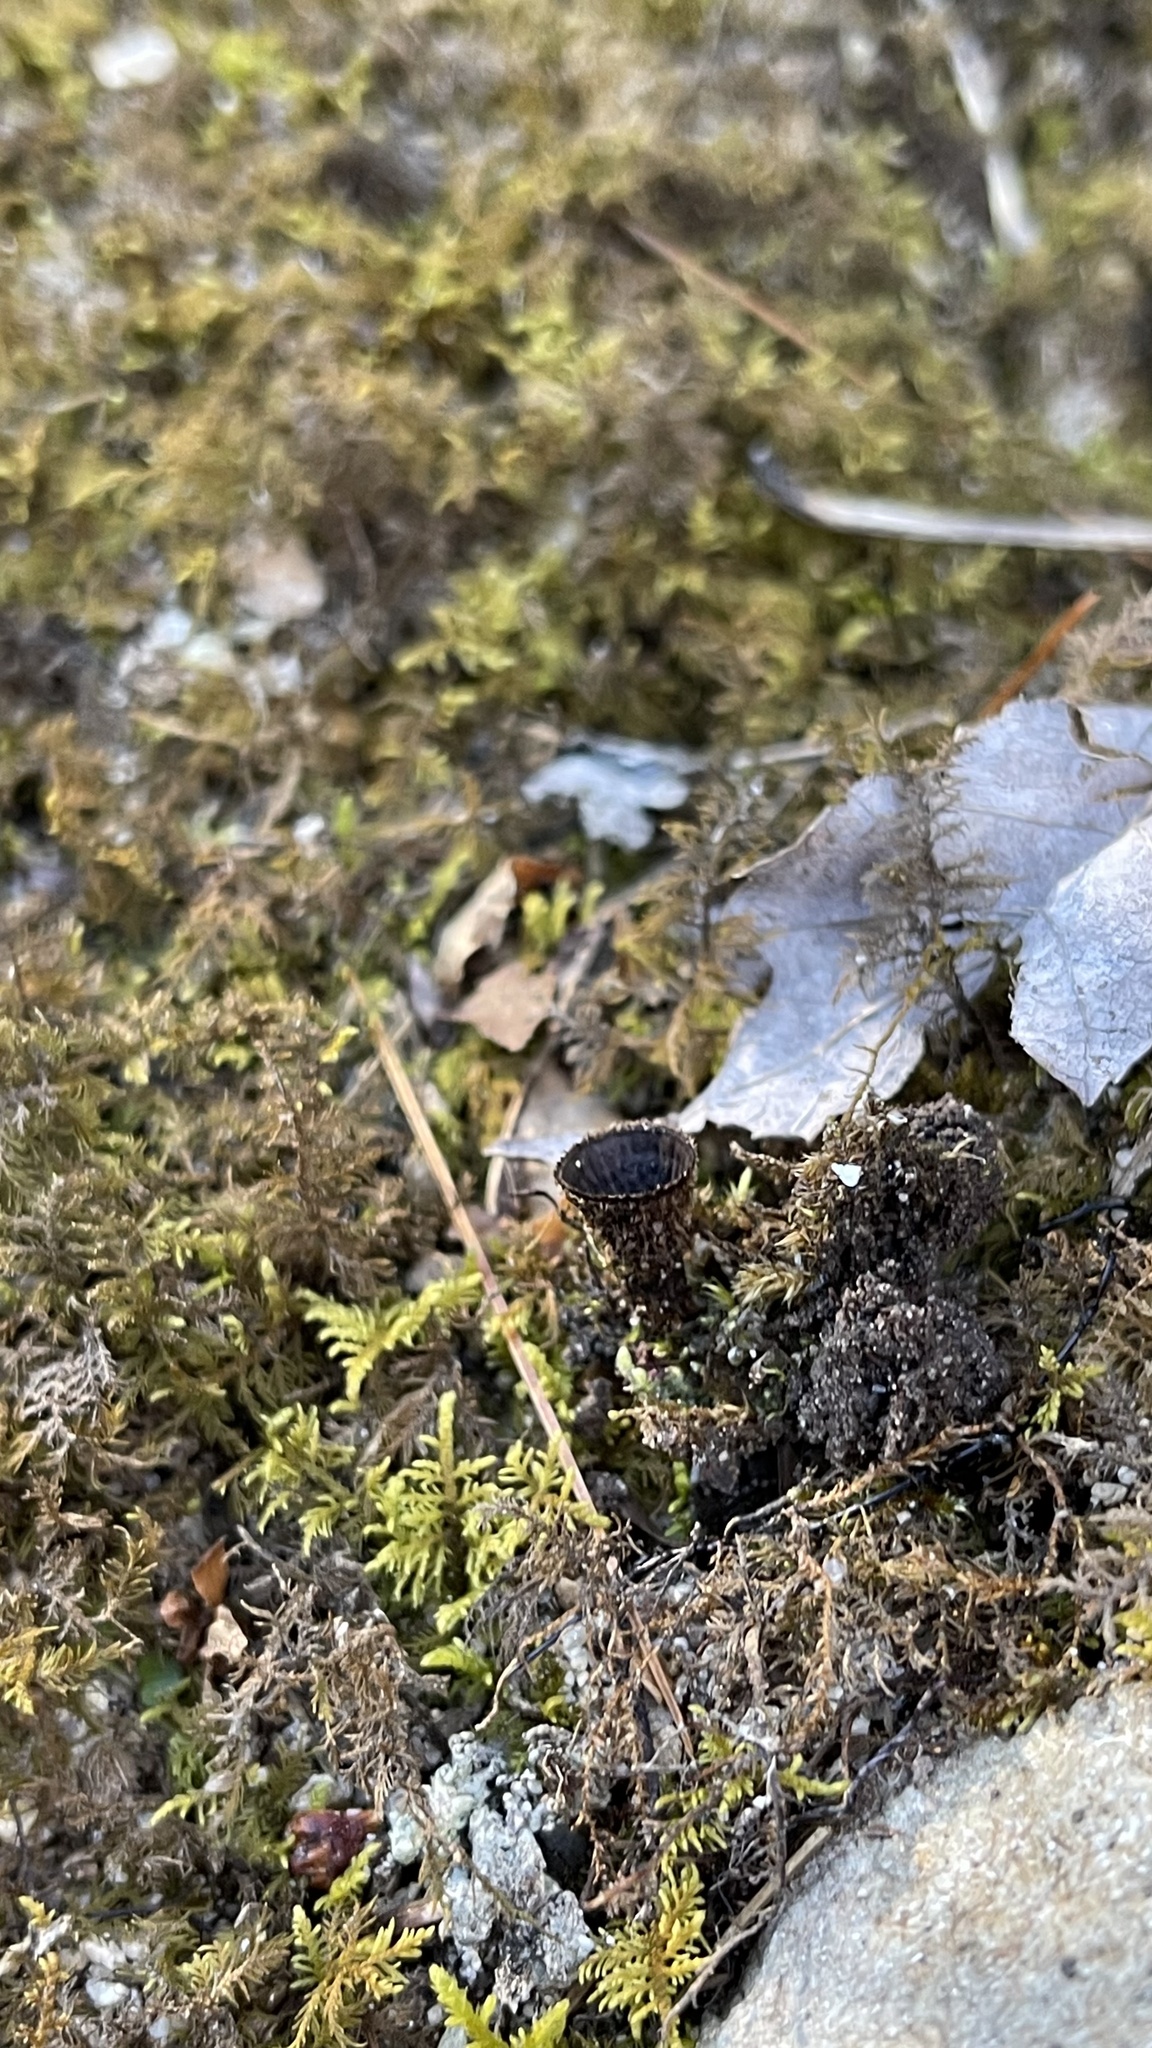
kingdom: Fungi
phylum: Basidiomycota
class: Agaricomycetes
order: Agaricales
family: Agaricaceae
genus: Cyathus
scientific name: Cyathus striatus
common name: Fluted bird's nest
